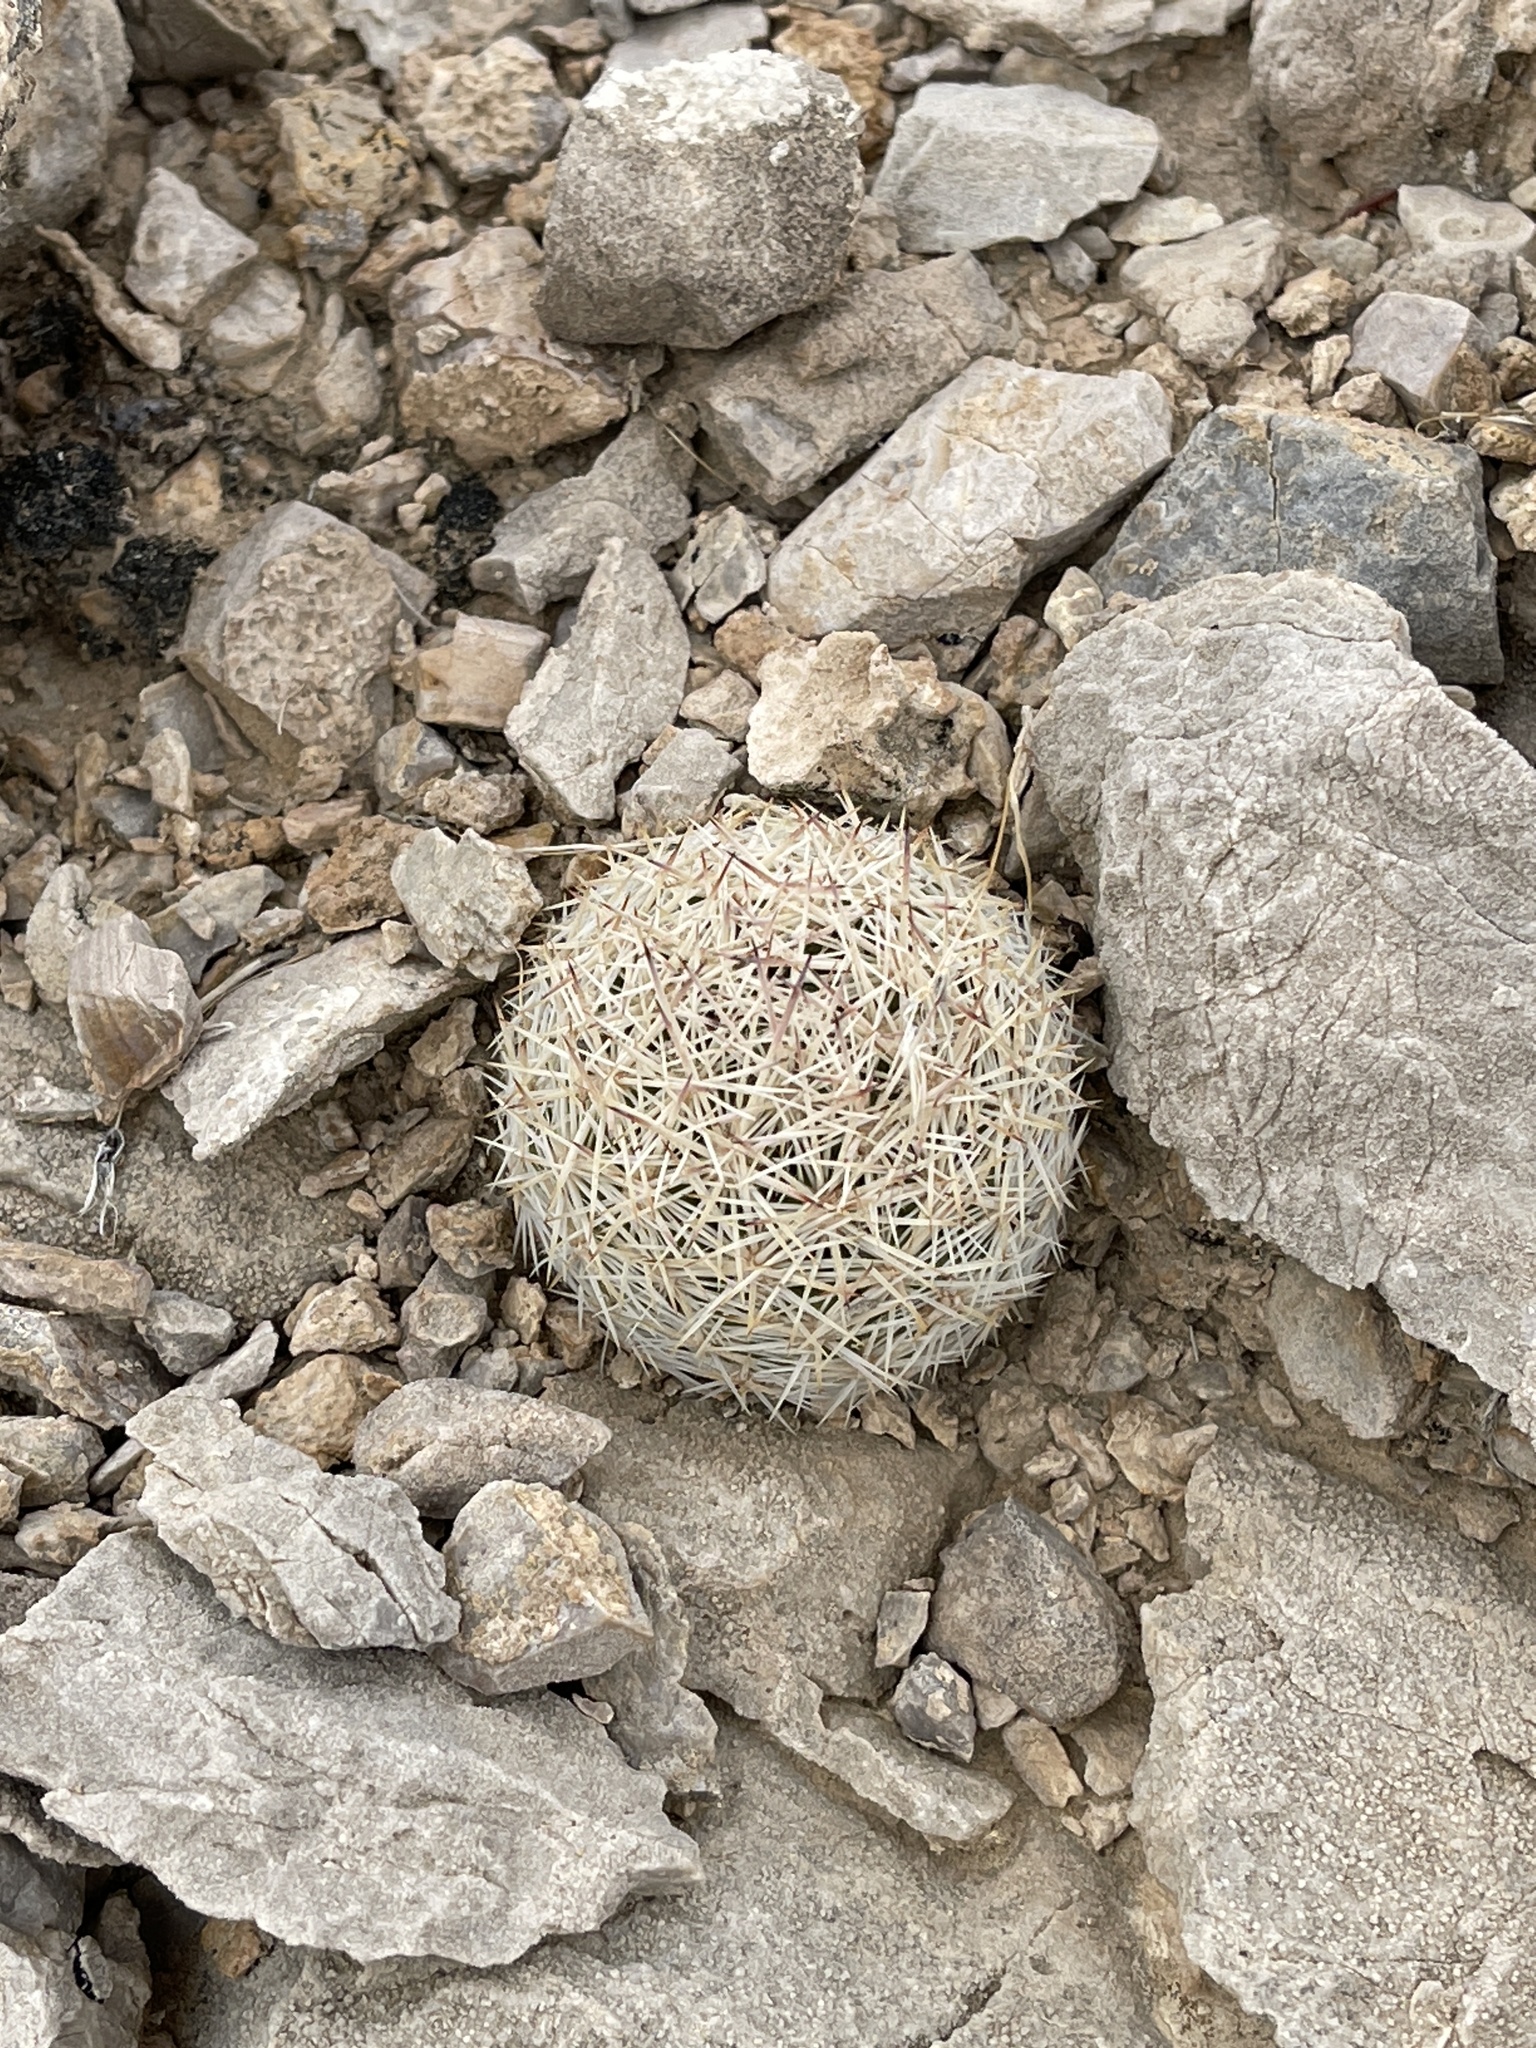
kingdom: Plantae
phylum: Tracheophyta
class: Magnoliopsida
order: Caryophyllales
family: Cactaceae
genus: Pelecyphora
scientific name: Pelecyphora dasyacantha
